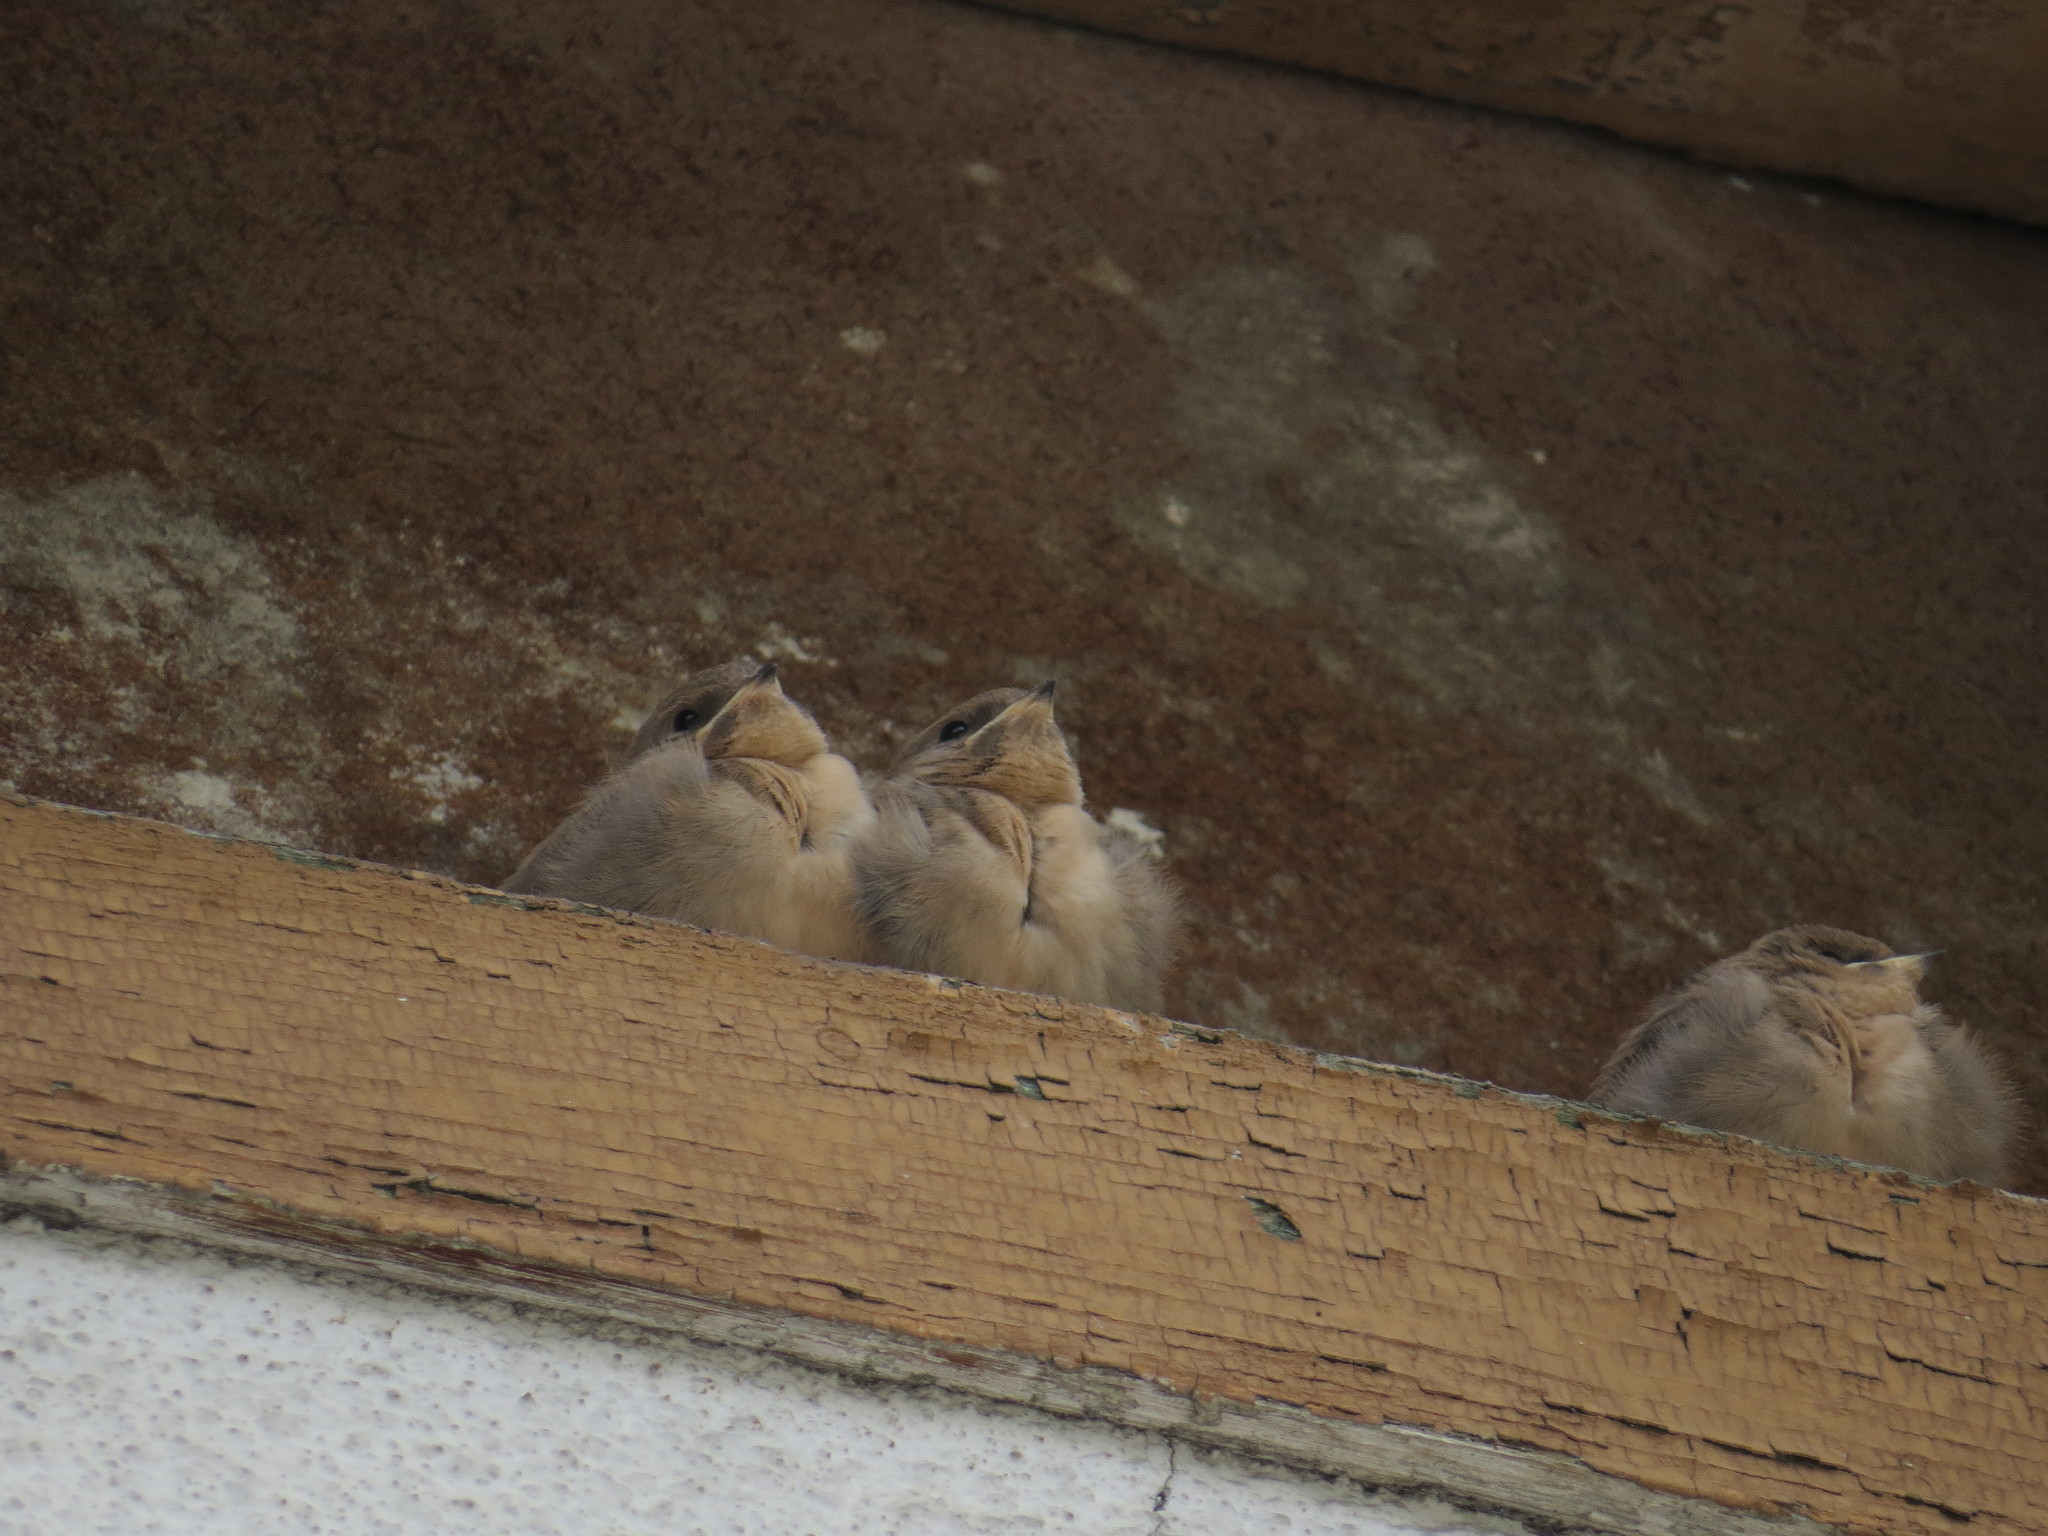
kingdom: Animalia
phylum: Chordata
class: Aves
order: Passeriformes
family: Hirundinidae
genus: Ptyonoprogne
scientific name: Ptyonoprogne rupestris
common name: Eurasian crag martin
